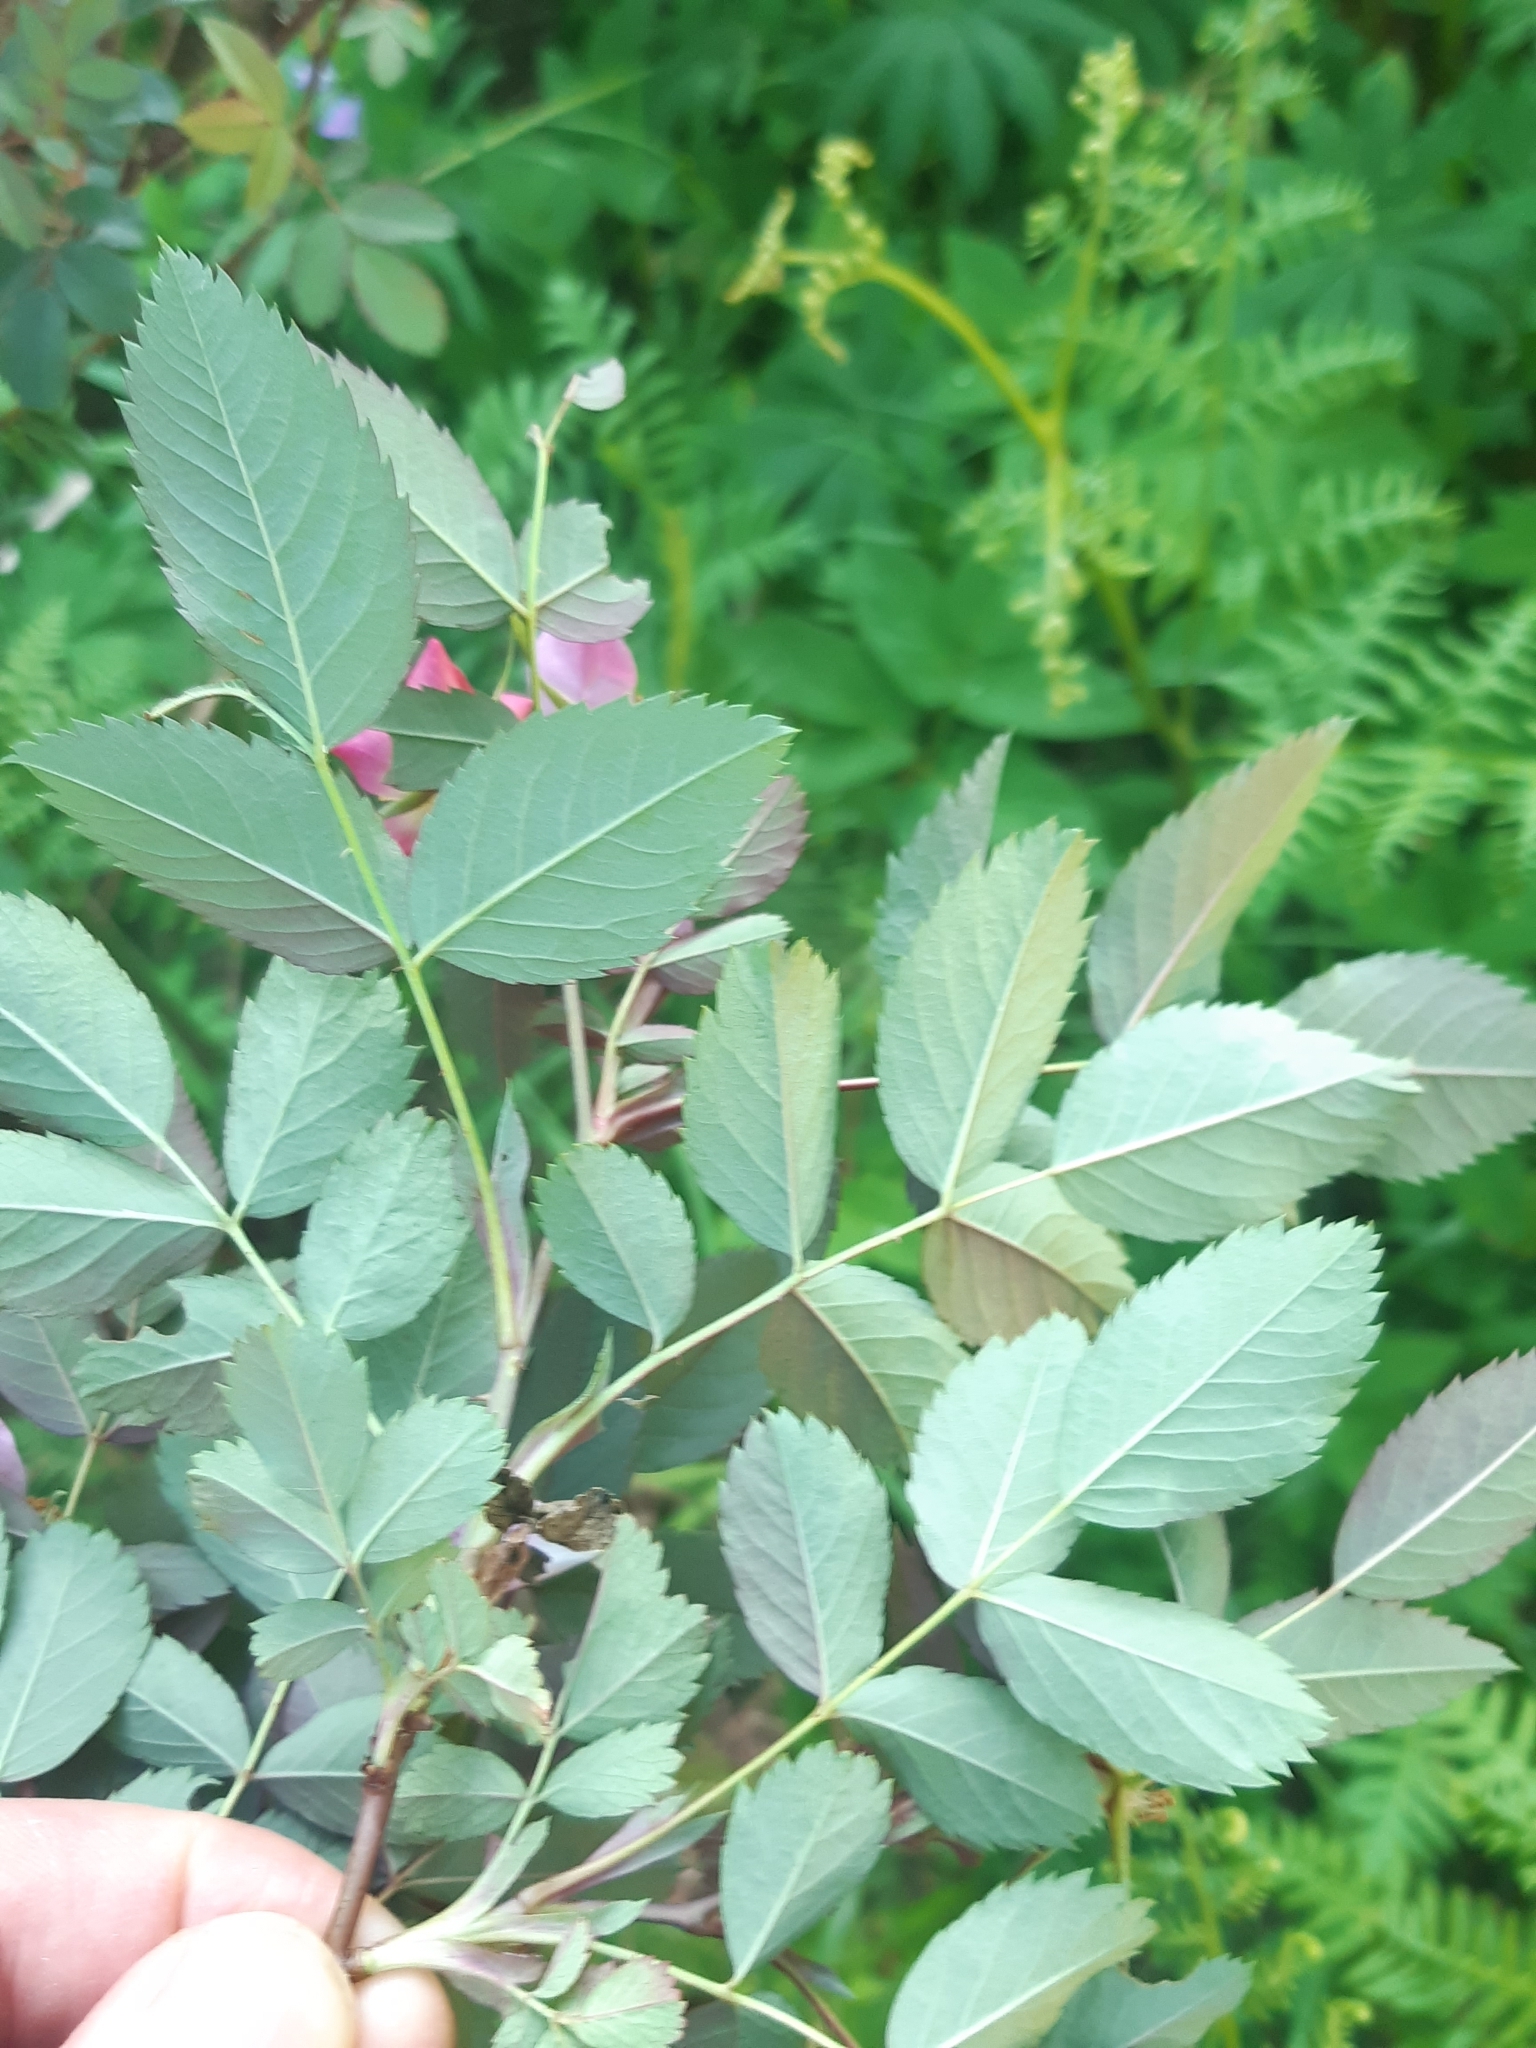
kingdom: Plantae
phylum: Tracheophyta
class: Magnoliopsida
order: Rosales
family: Rosaceae
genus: Rosa
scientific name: Rosa glauca
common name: Redleaf rose
